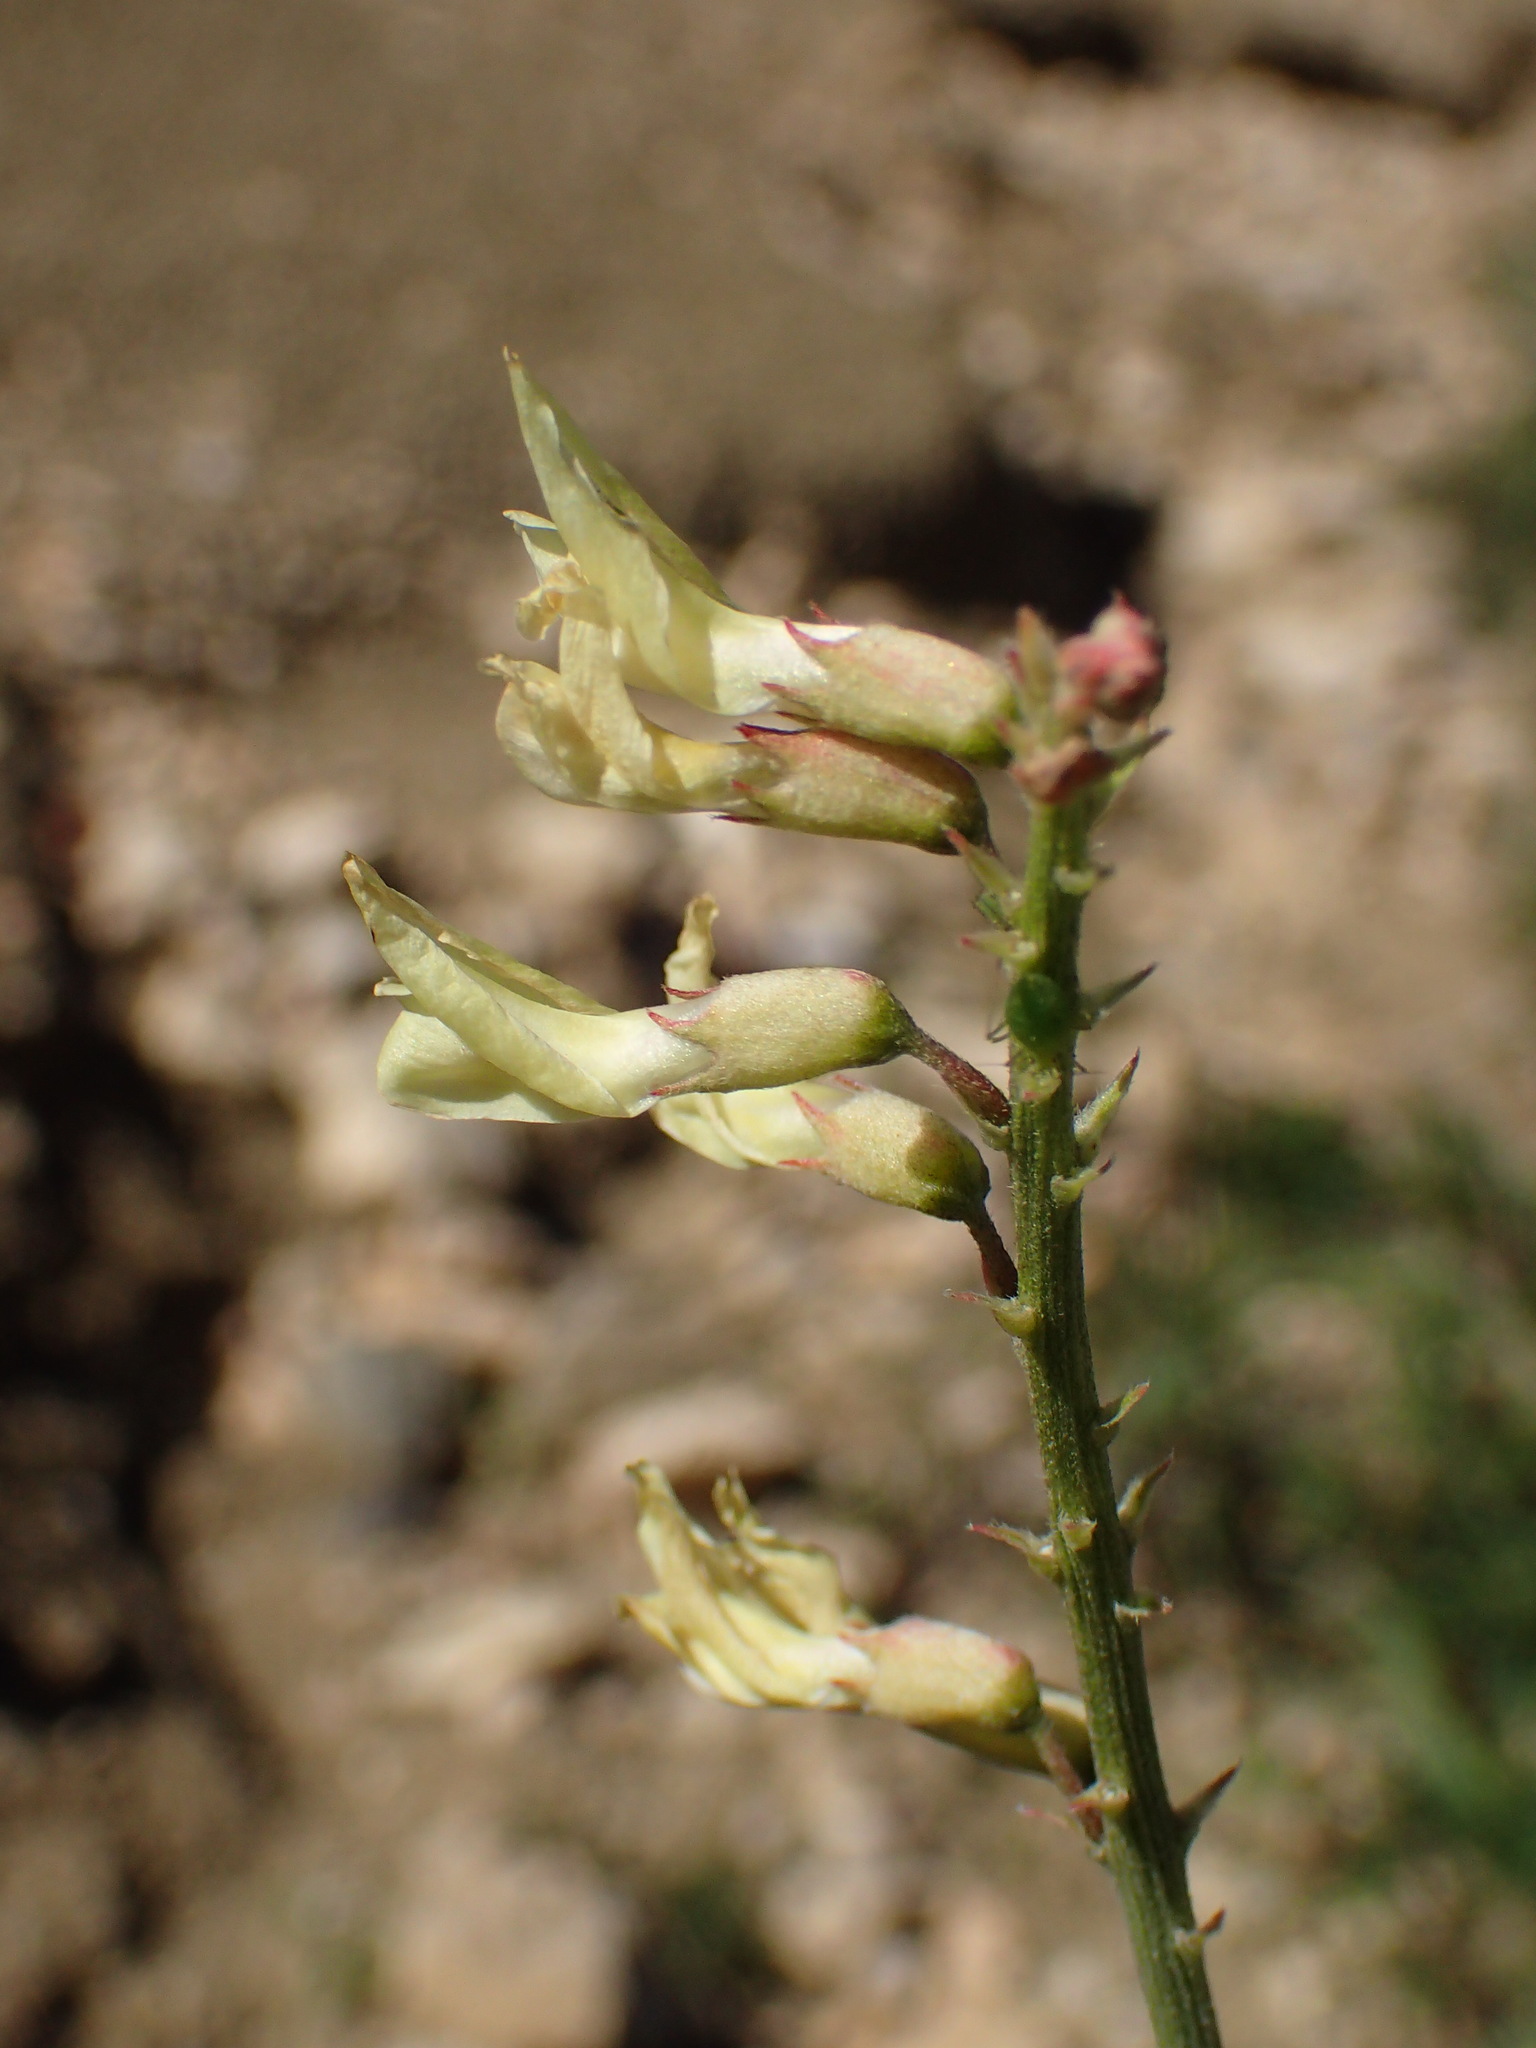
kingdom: Plantae
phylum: Tracheophyta
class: Magnoliopsida
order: Fabales
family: Fabaceae
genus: Astragalus
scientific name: Astragalus trichopodus
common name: Santa barbara milk-vetch
